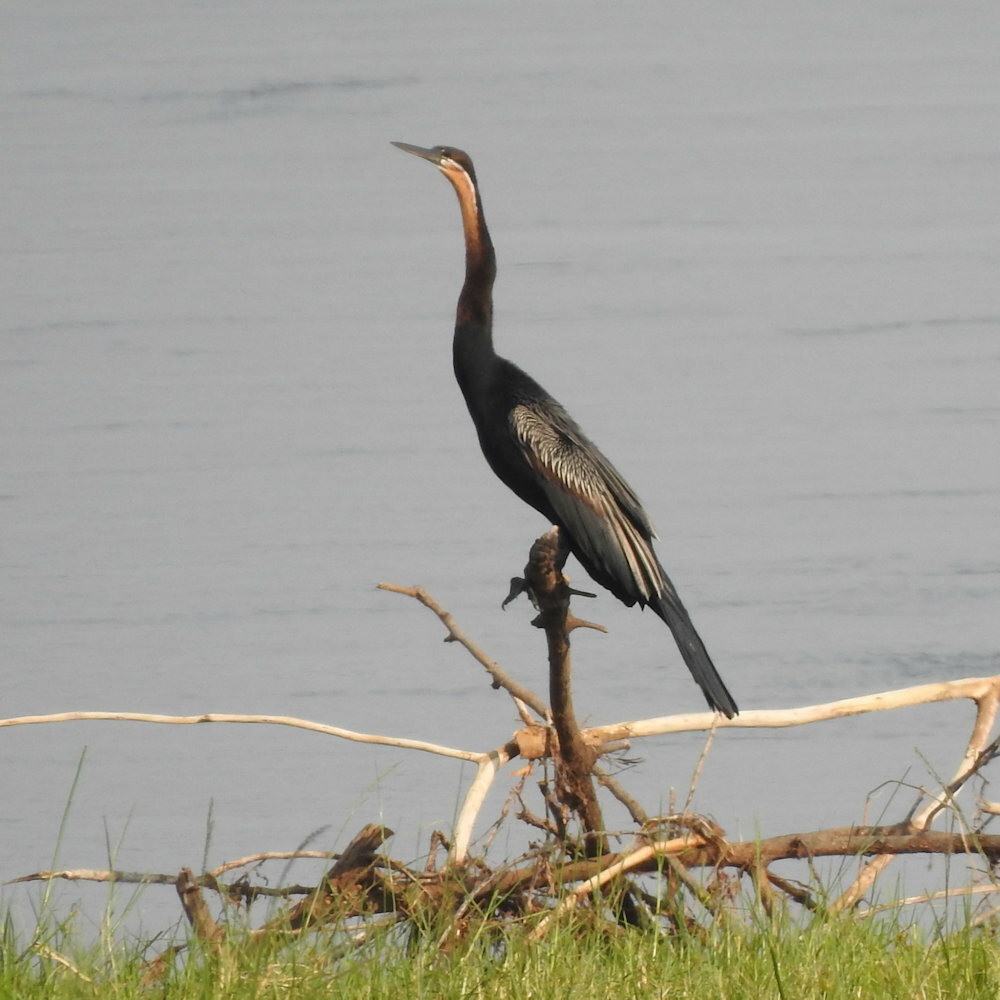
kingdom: Animalia
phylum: Chordata
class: Aves
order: Suliformes
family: Anhingidae
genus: Anhinga
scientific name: Anhinga rufa
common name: African darter
